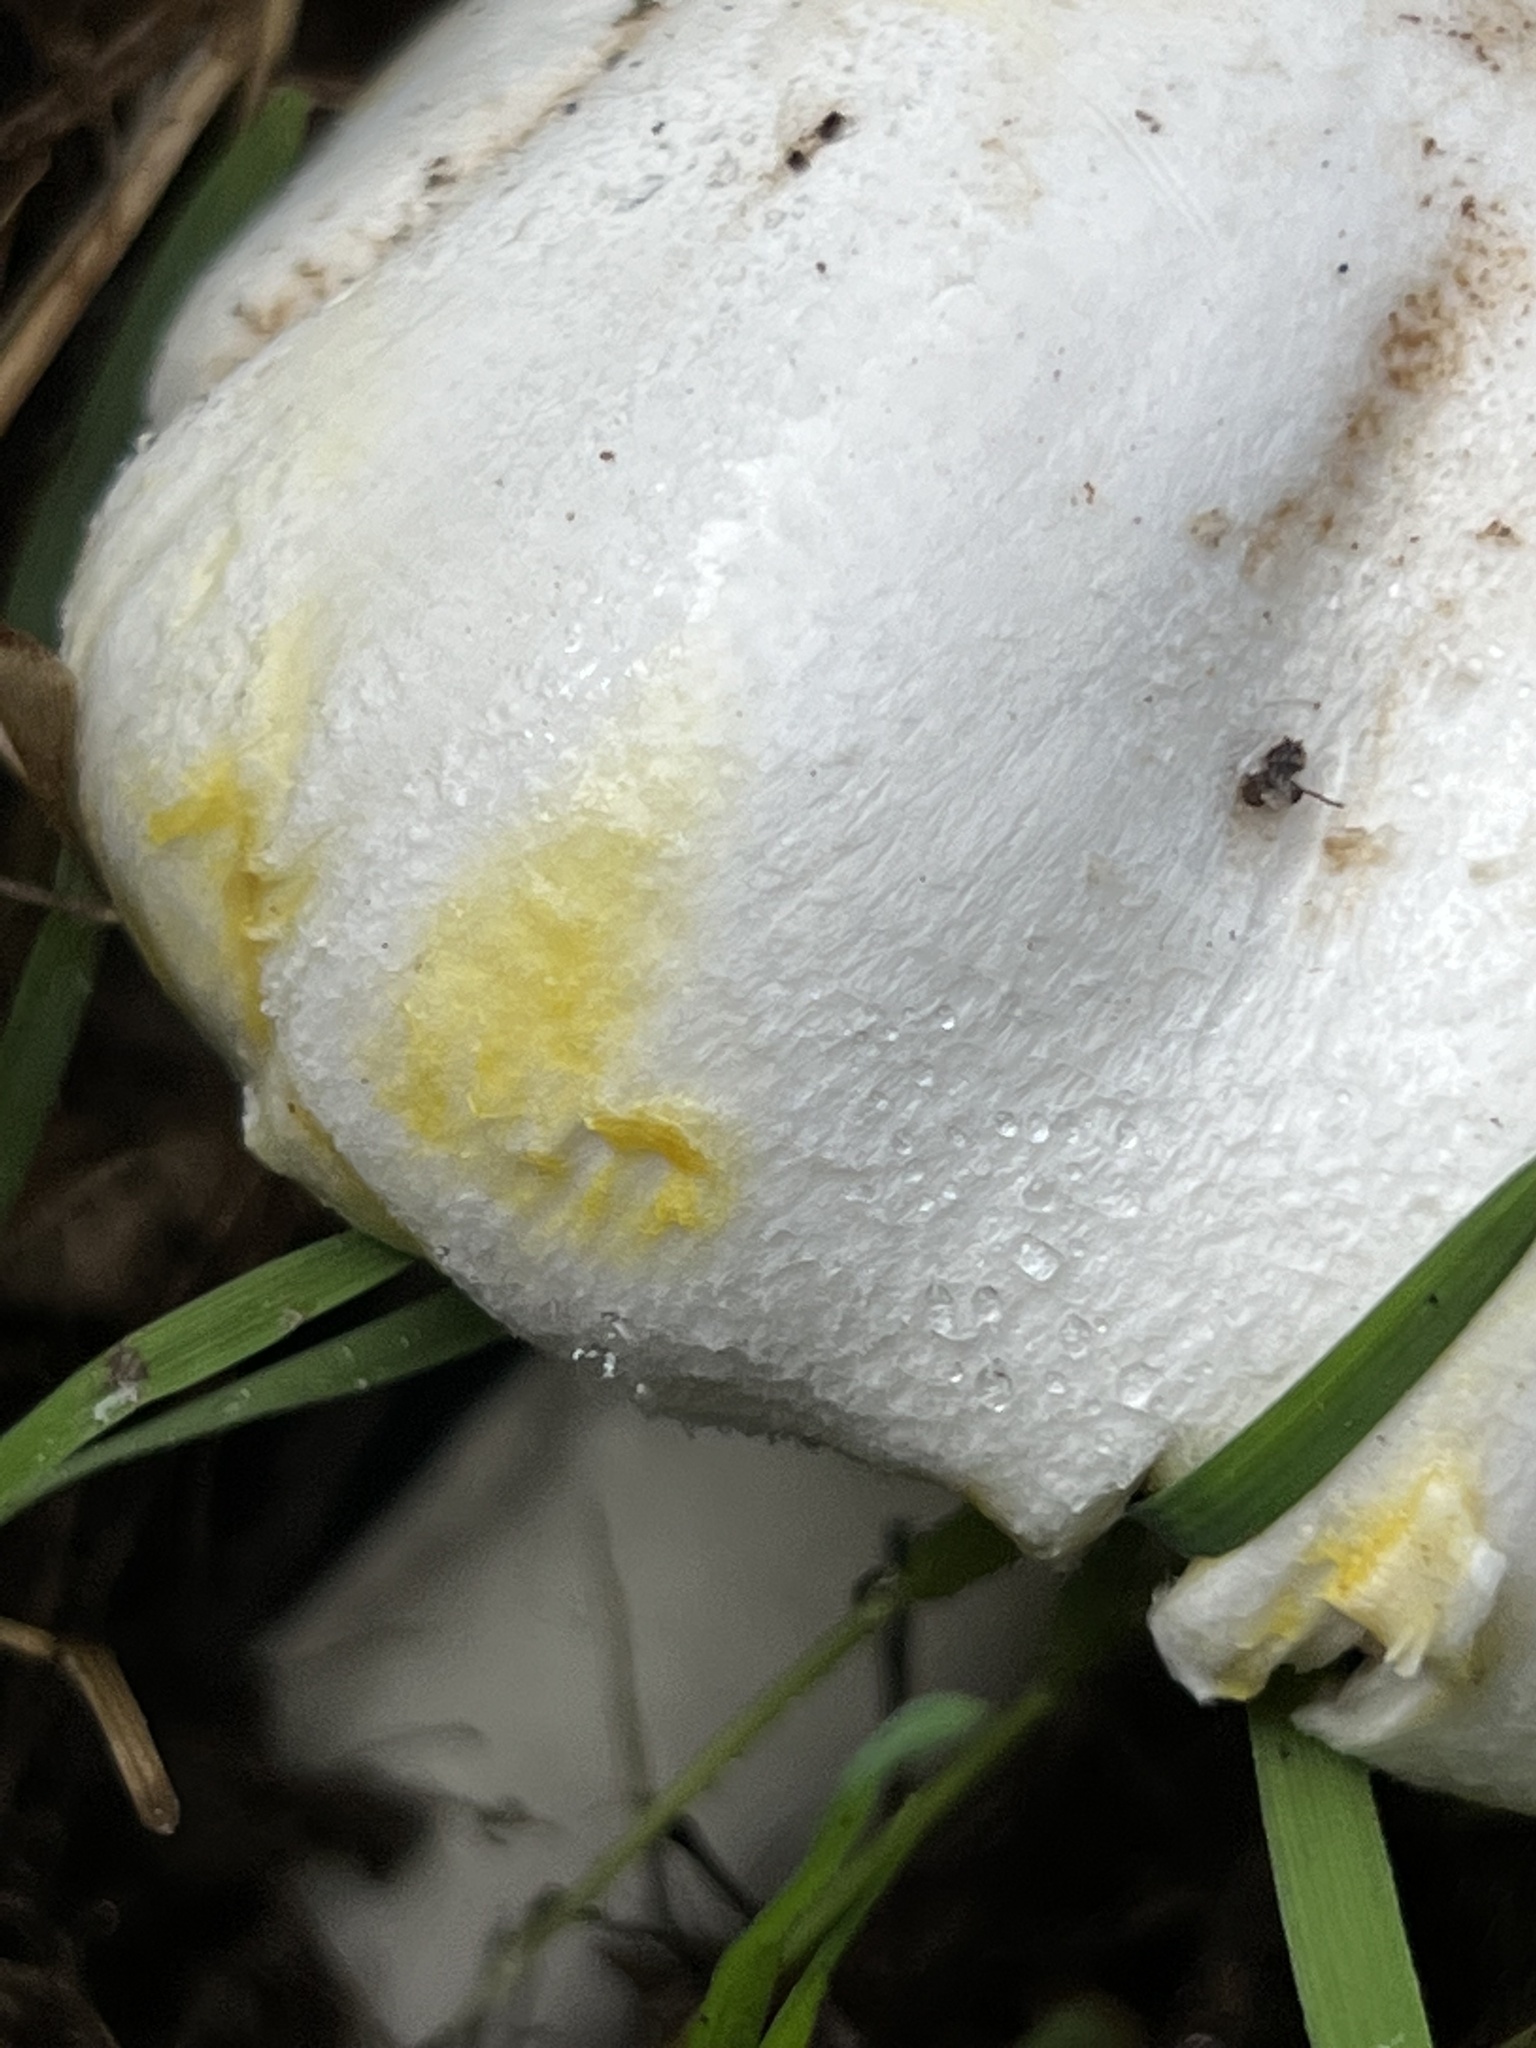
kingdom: Fungi
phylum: Basidiomycota
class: Agaricomycetes
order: Agaricales
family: Agaricaceae
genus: Agaricus
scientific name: Agaricus xanthodermus
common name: Yellow stainer
